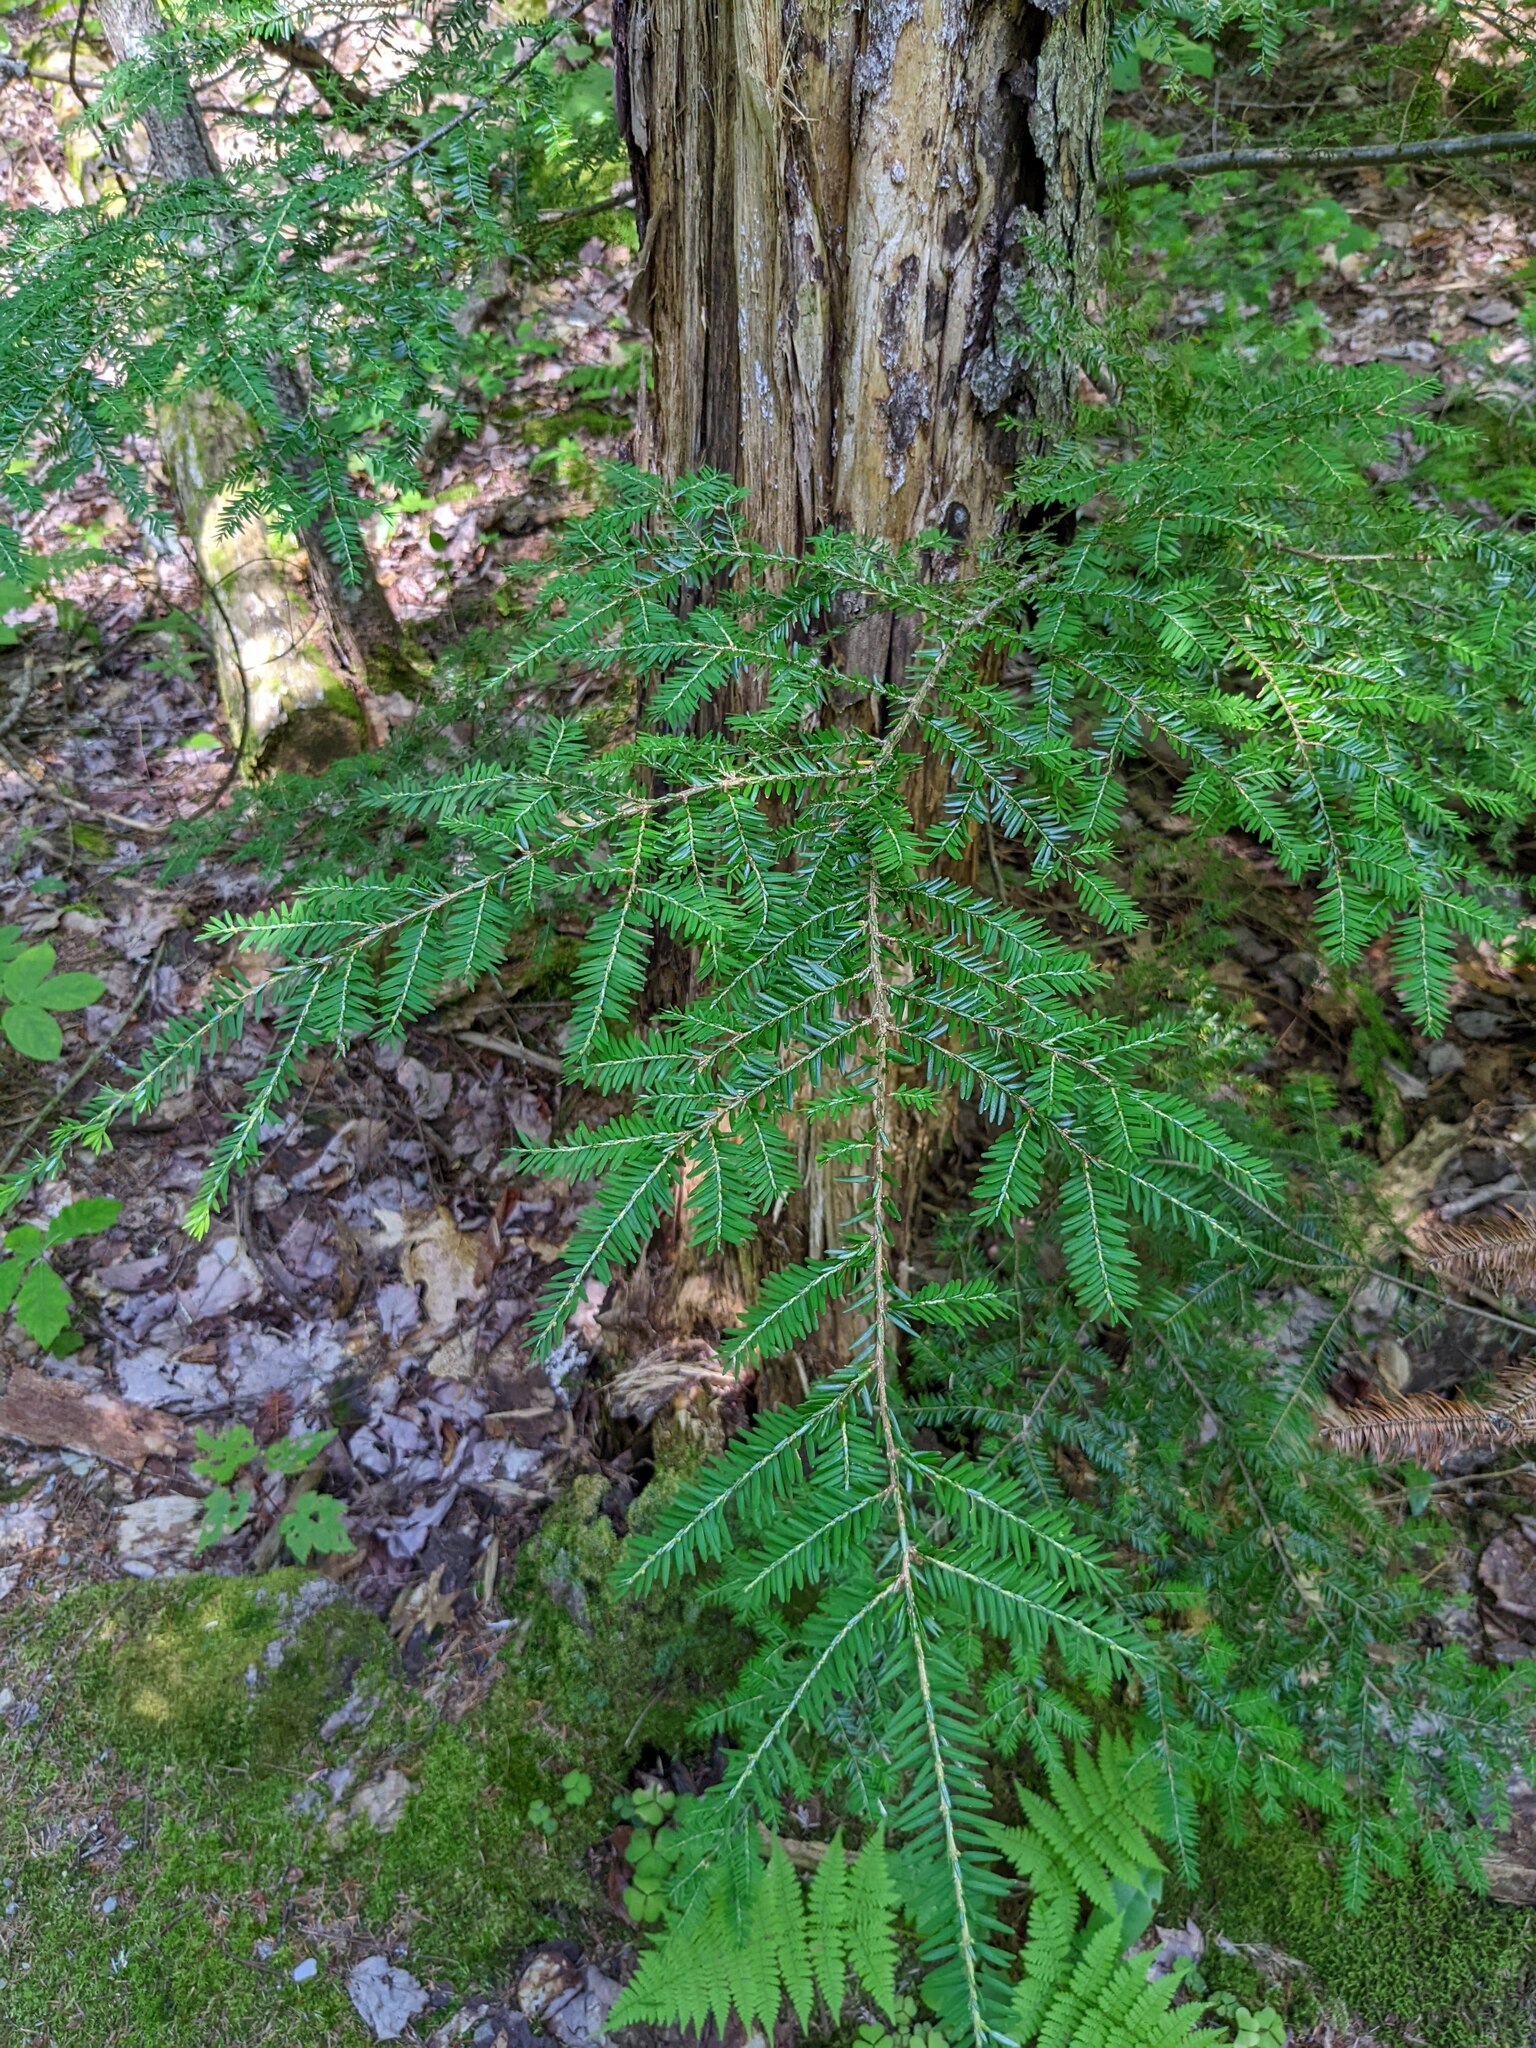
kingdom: Plantae
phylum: Tracheophyta
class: Pinopsida
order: Pinales
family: Pinaceae
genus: Tsuga
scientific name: Tsuga canadensis
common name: Eastern hemlock
